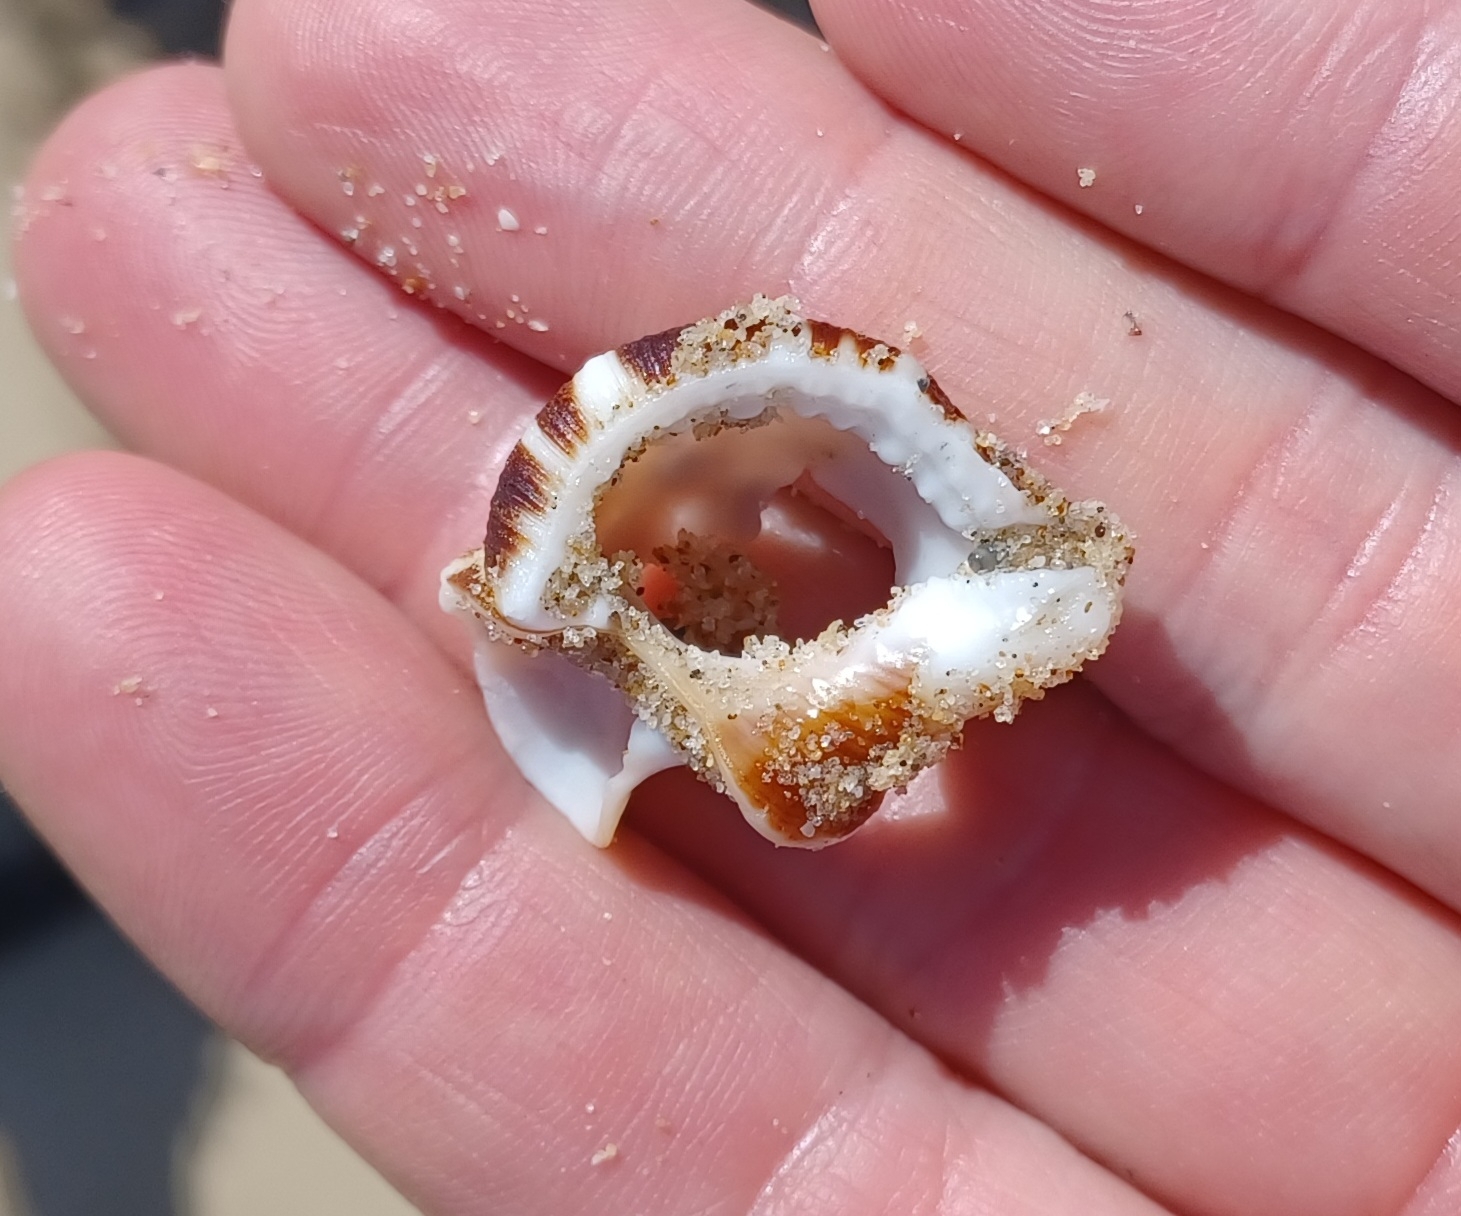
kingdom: Animalia
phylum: Mollusca
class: Gastropoda
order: Littorinimorpha
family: Ranellidae
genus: Ranella
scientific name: Ranella australasia
